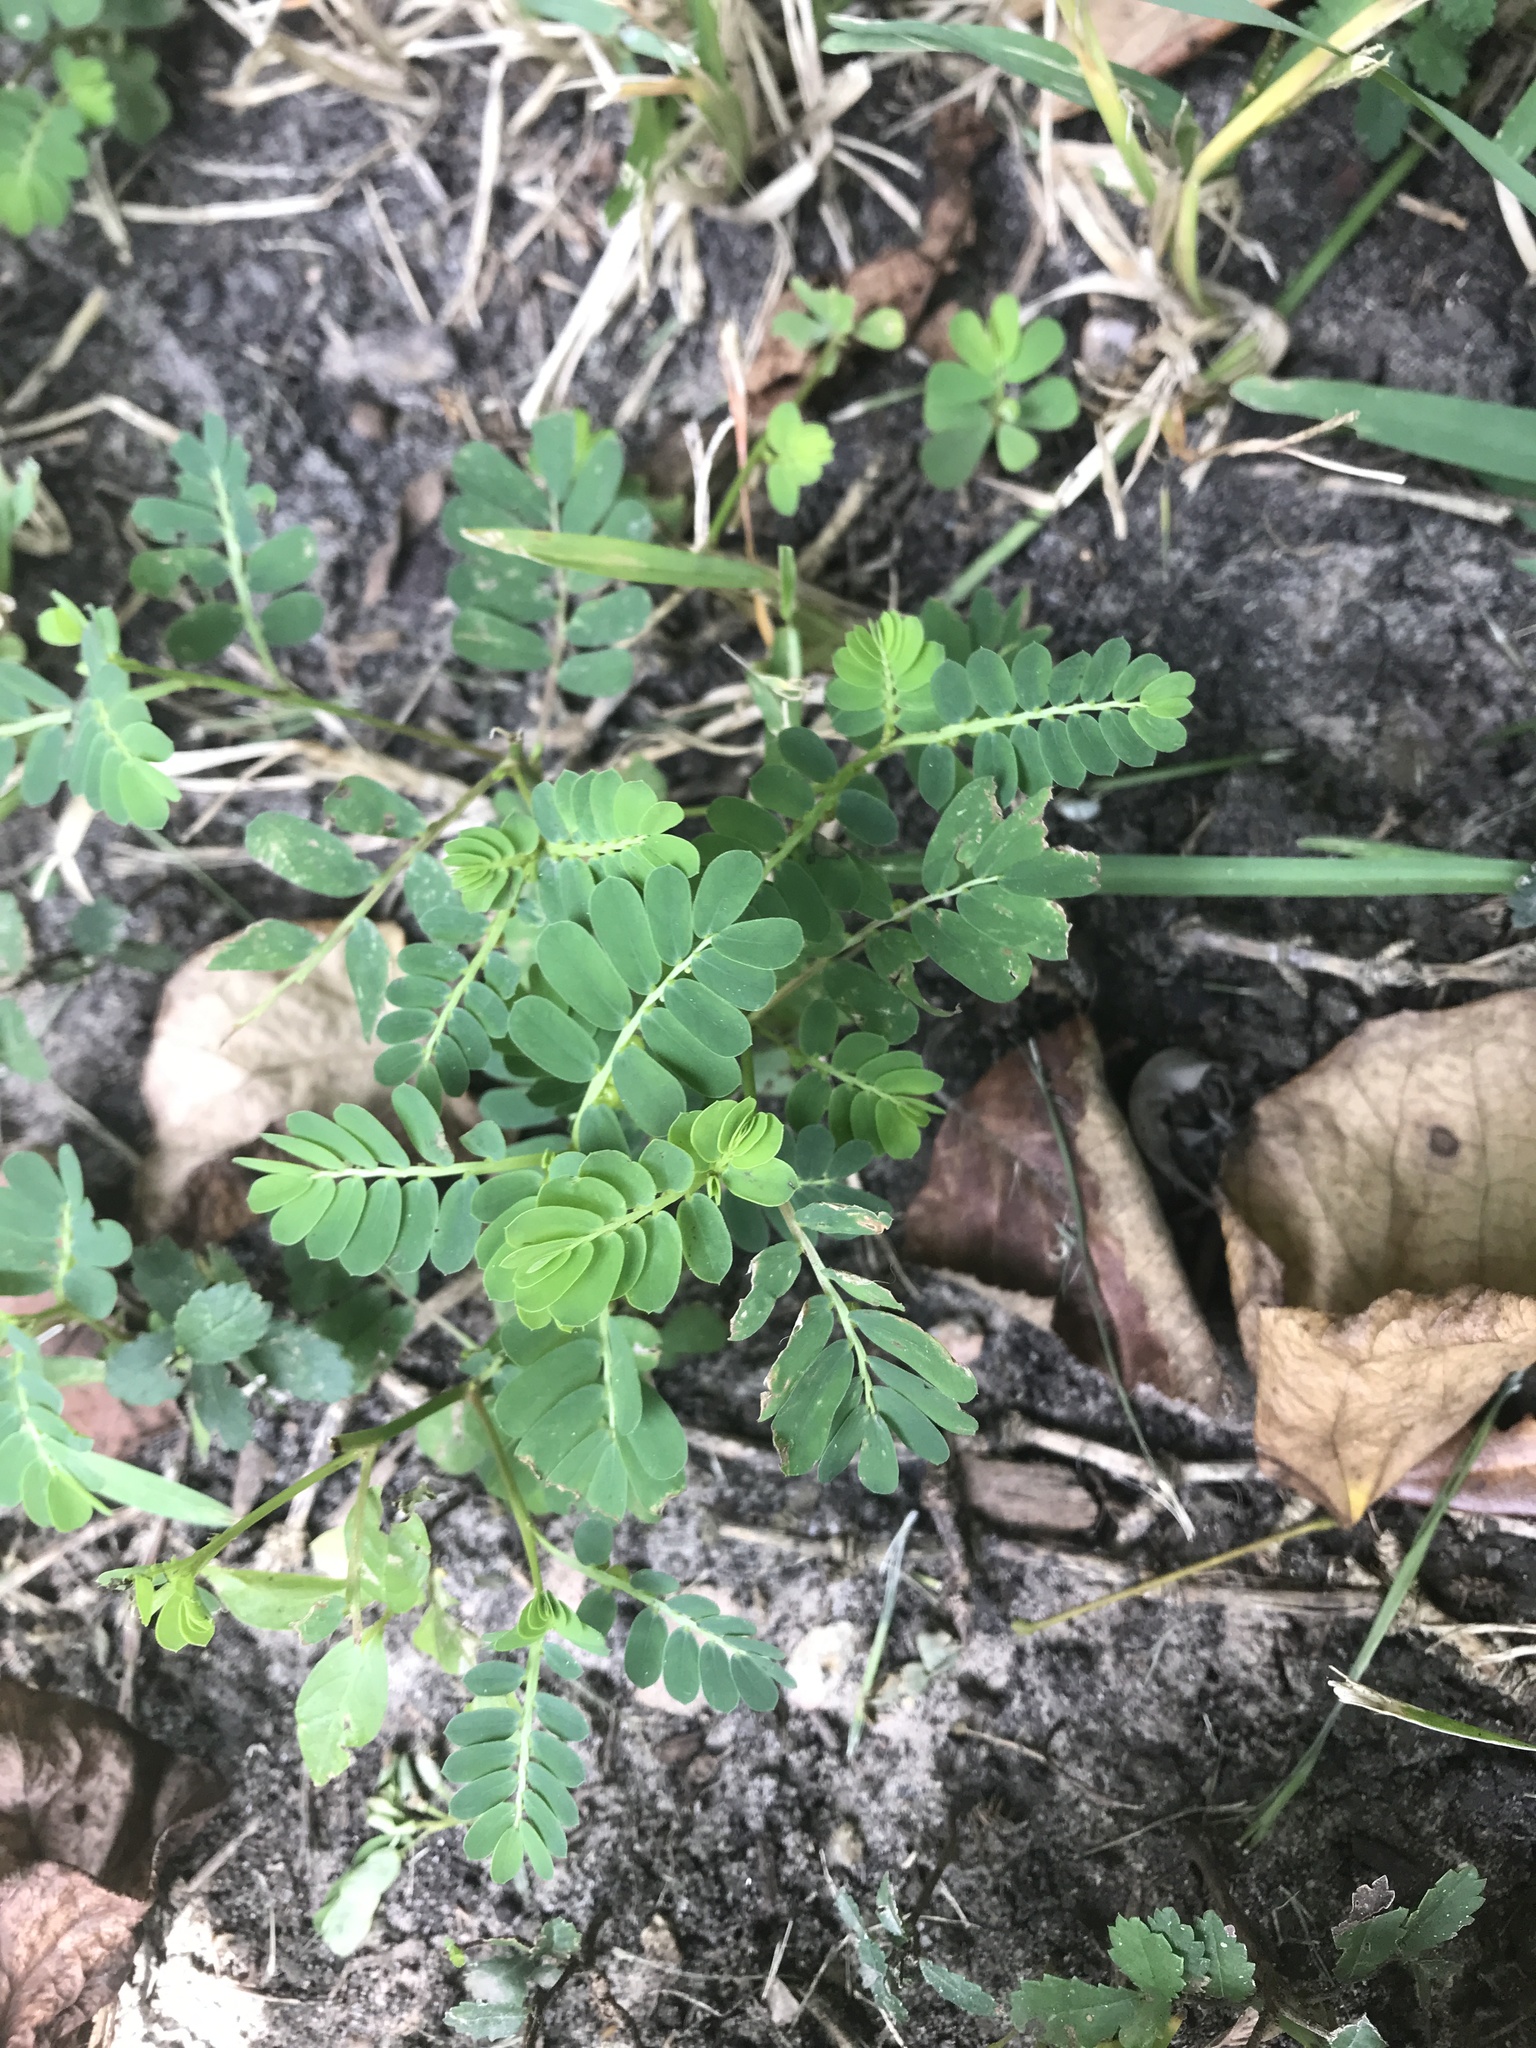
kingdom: Plantae
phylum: Tracheophyta
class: Magnoliopsida
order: Malpighiales
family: Phyllanthaceae
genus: Phyllanthus
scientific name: Phyllanthus urinaria
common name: Chamber bitter
